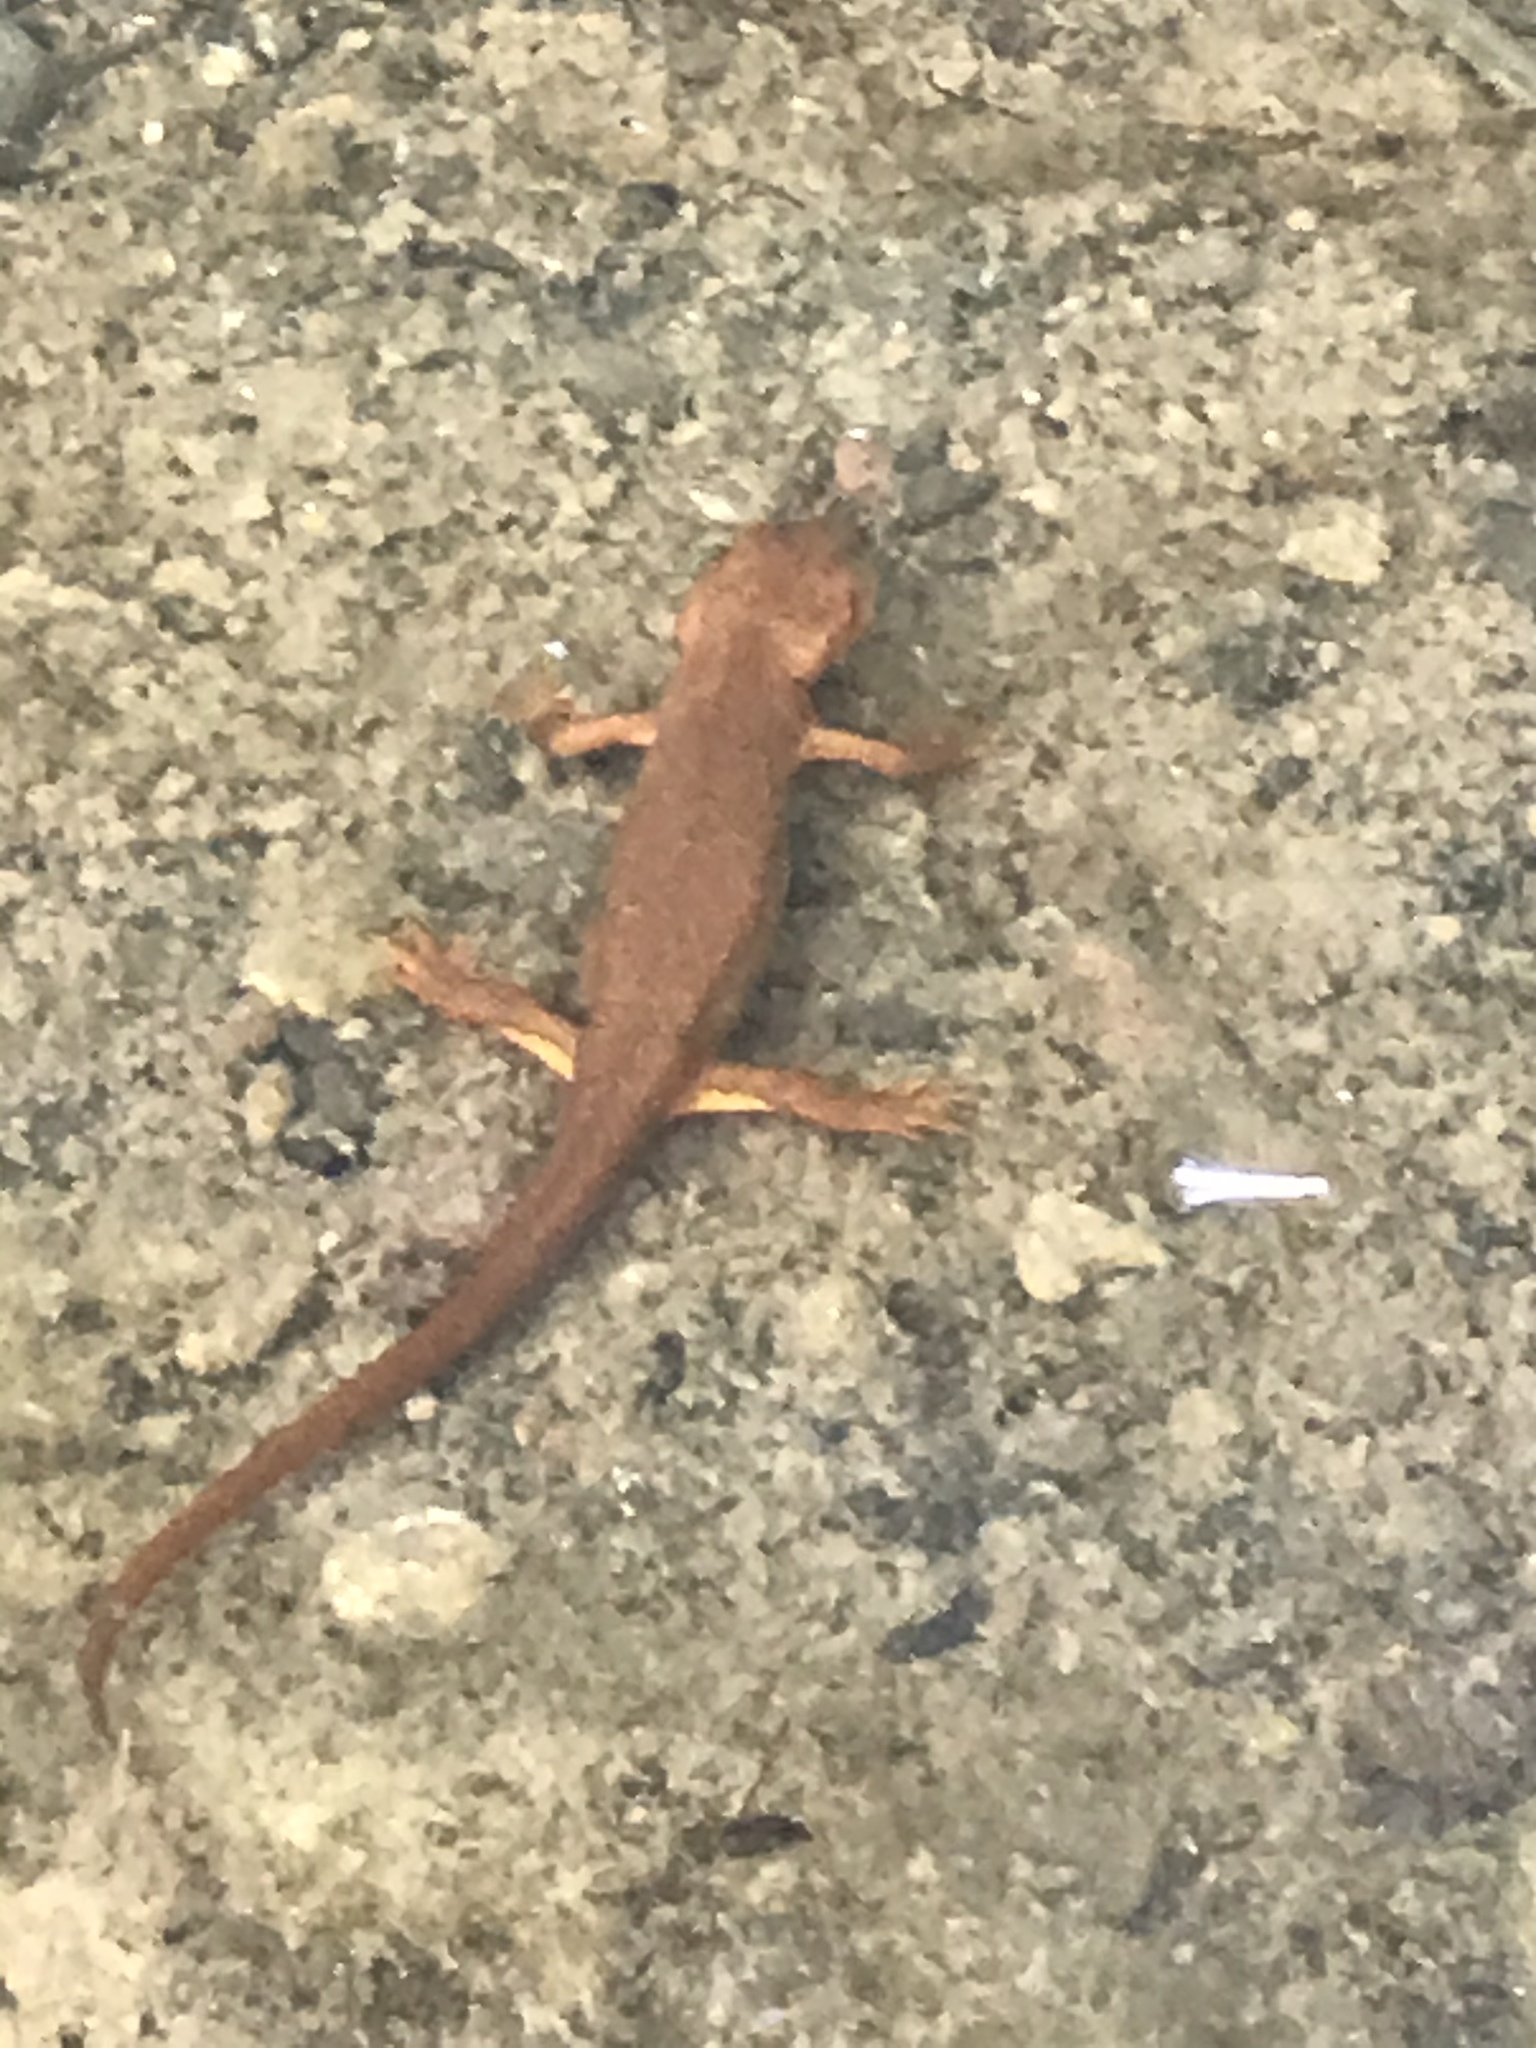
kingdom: Animalia
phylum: Chordata
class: Amphibia
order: Caudata
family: Salamandridae
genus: Taricha
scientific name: Taricha granulosa
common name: Roughskin newt
